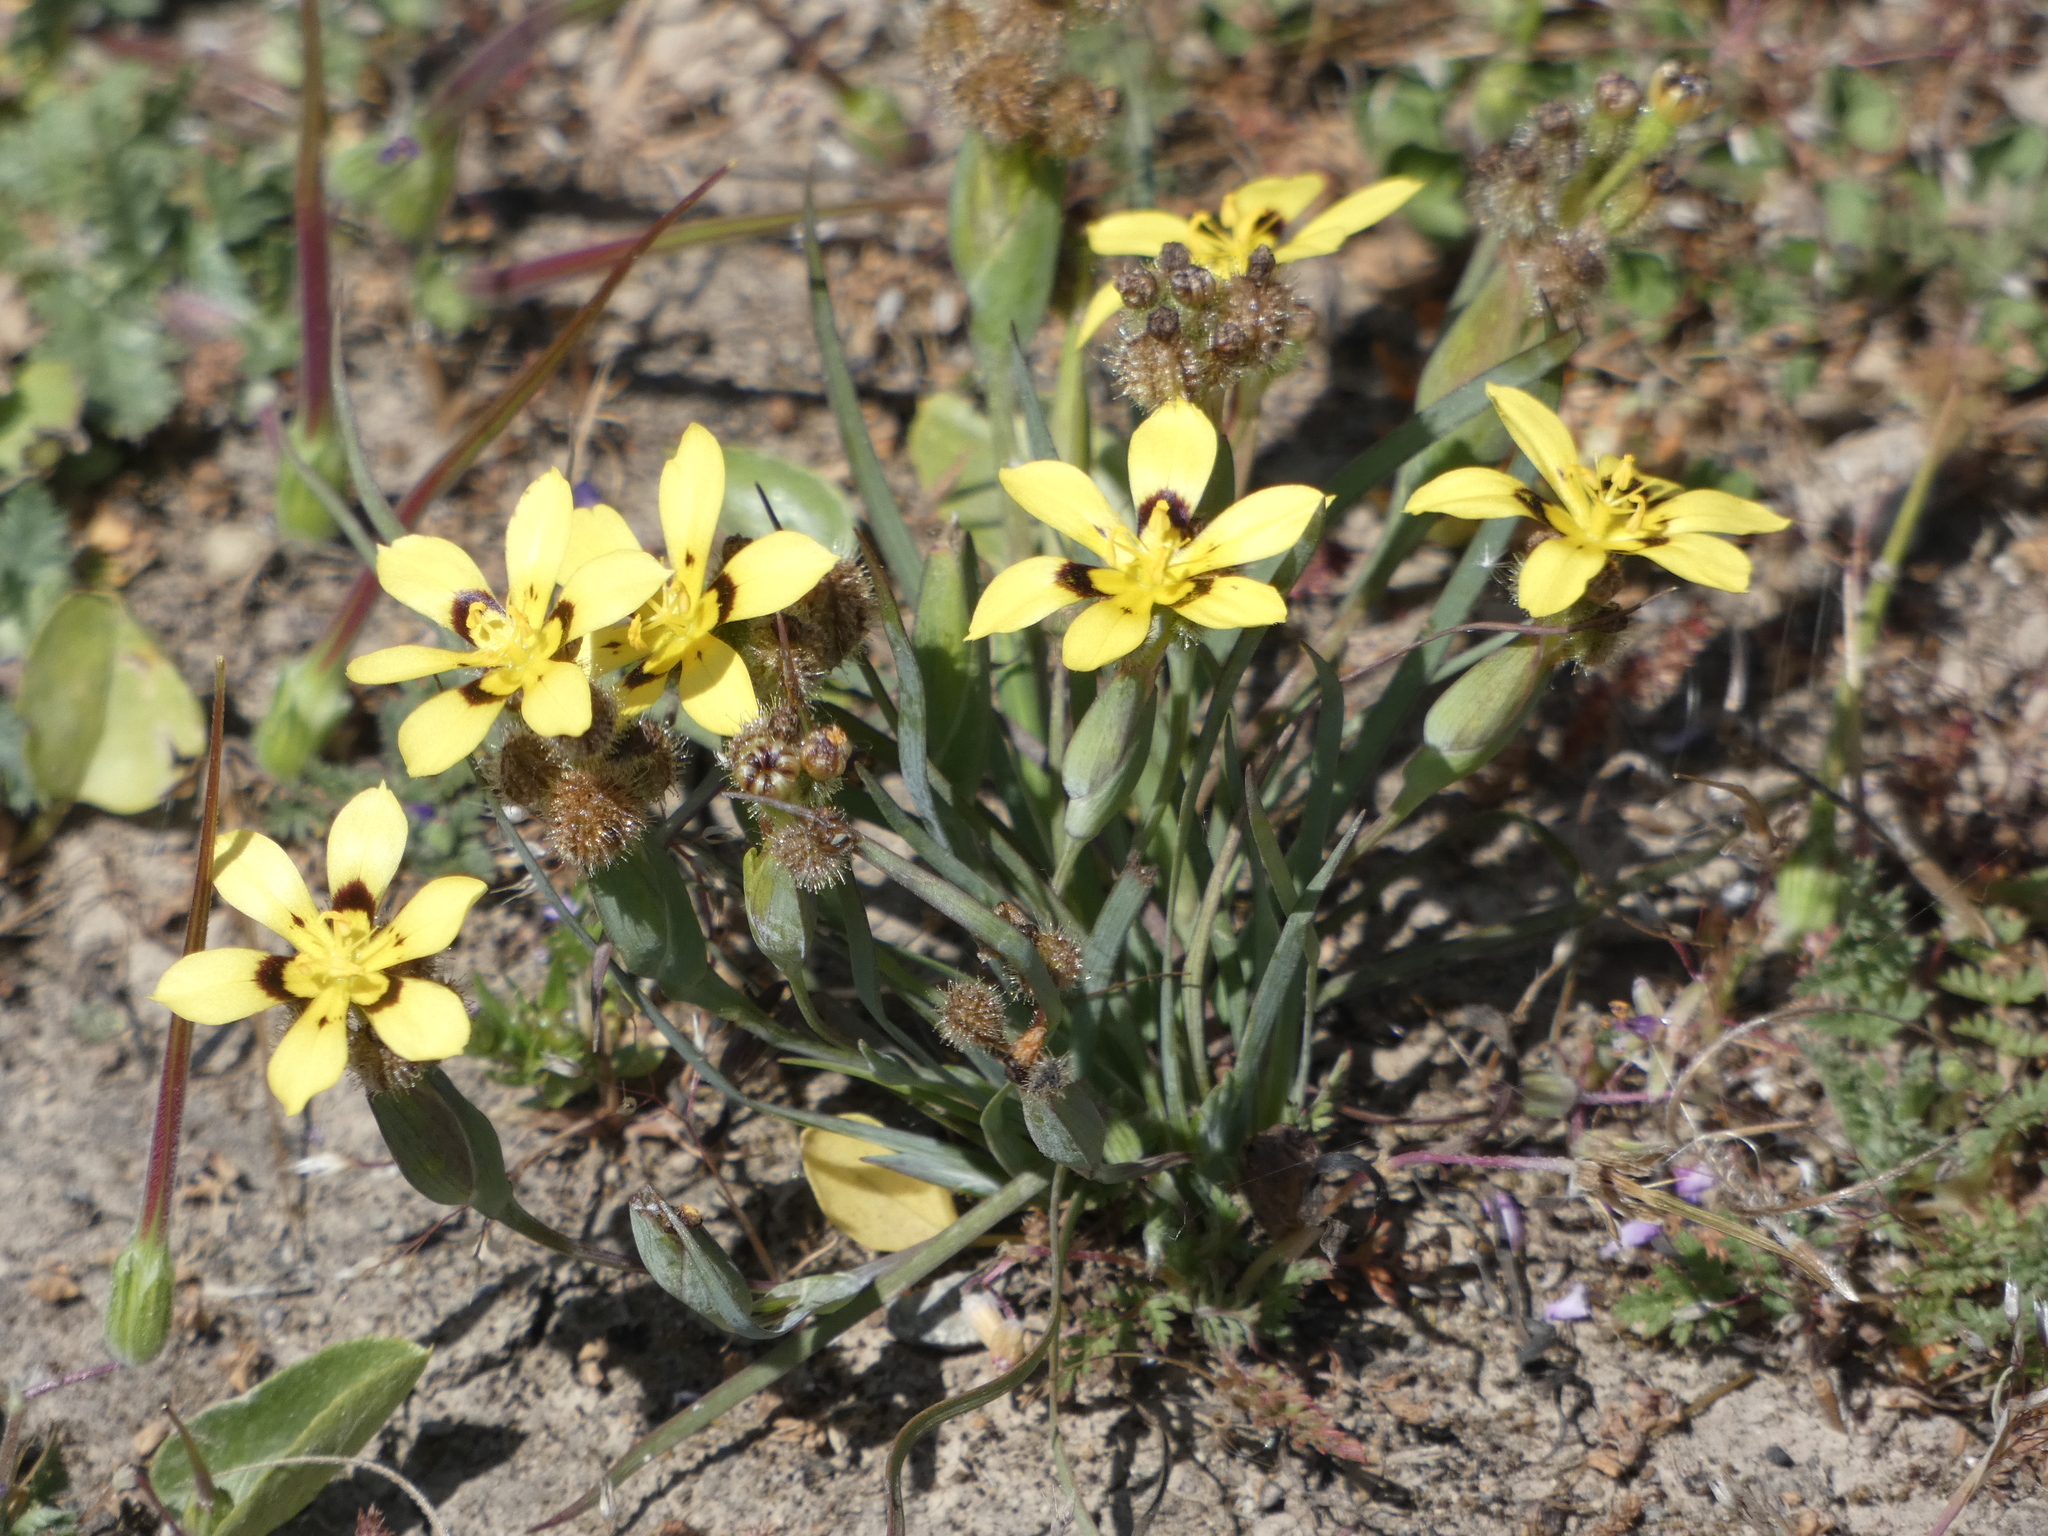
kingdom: Plantae
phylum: Tracheophyta
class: Liliopsida
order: Asparagales
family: Iridaceae
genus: Sisyrinchium
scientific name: Sisyrinchium graminifolium
